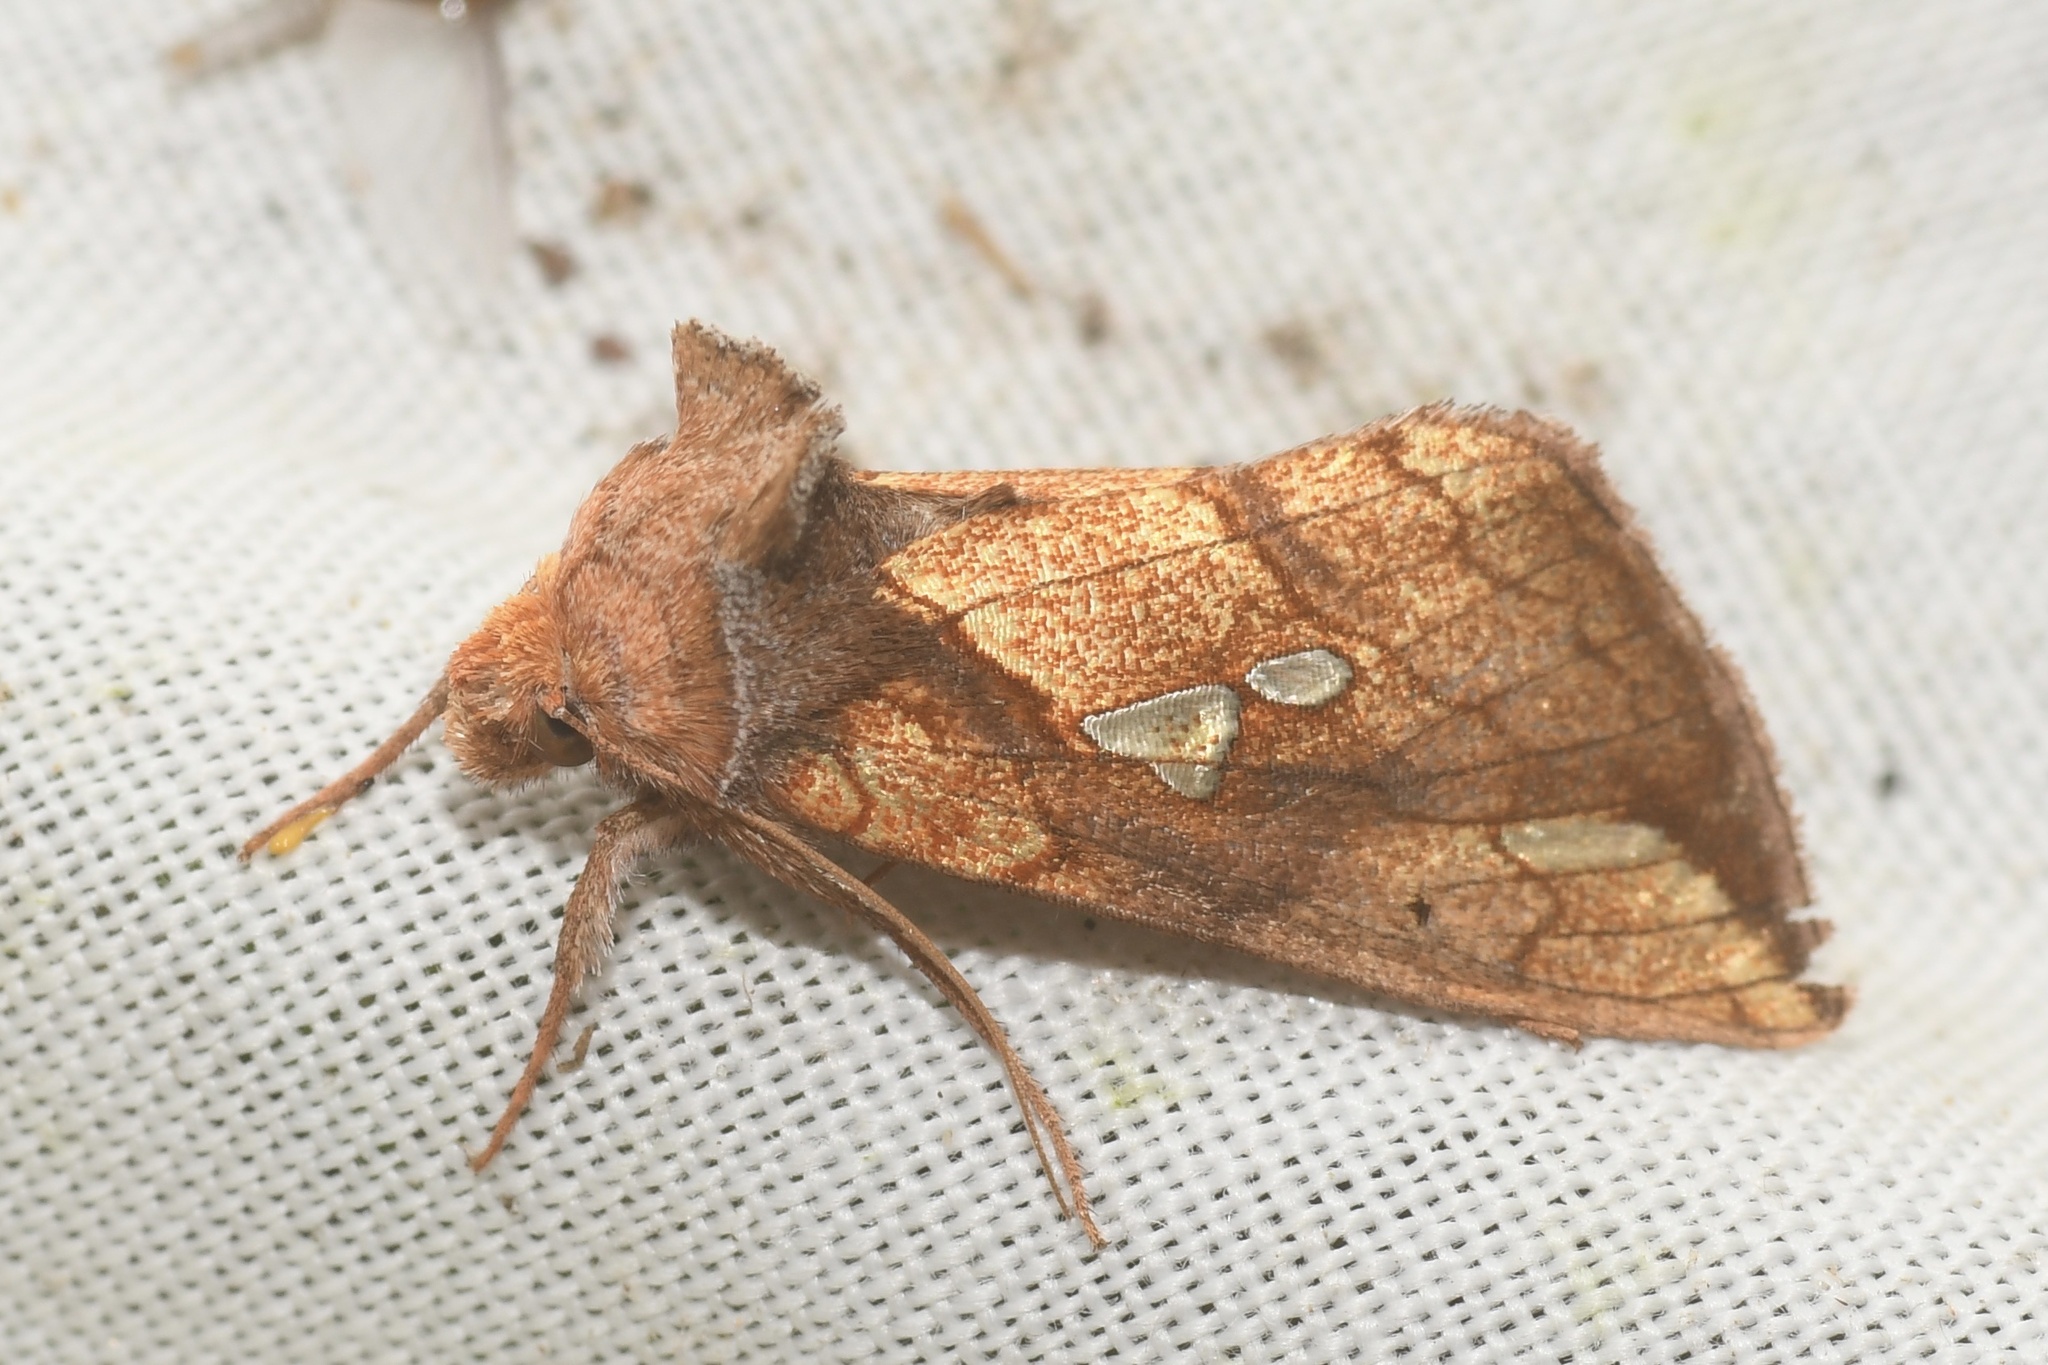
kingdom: Animalia
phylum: Arthropoda
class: Insecta
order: Lepidoptera
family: Noctuidae
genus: Plusia
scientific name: Plusia putnami
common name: Lempke's gold spot
